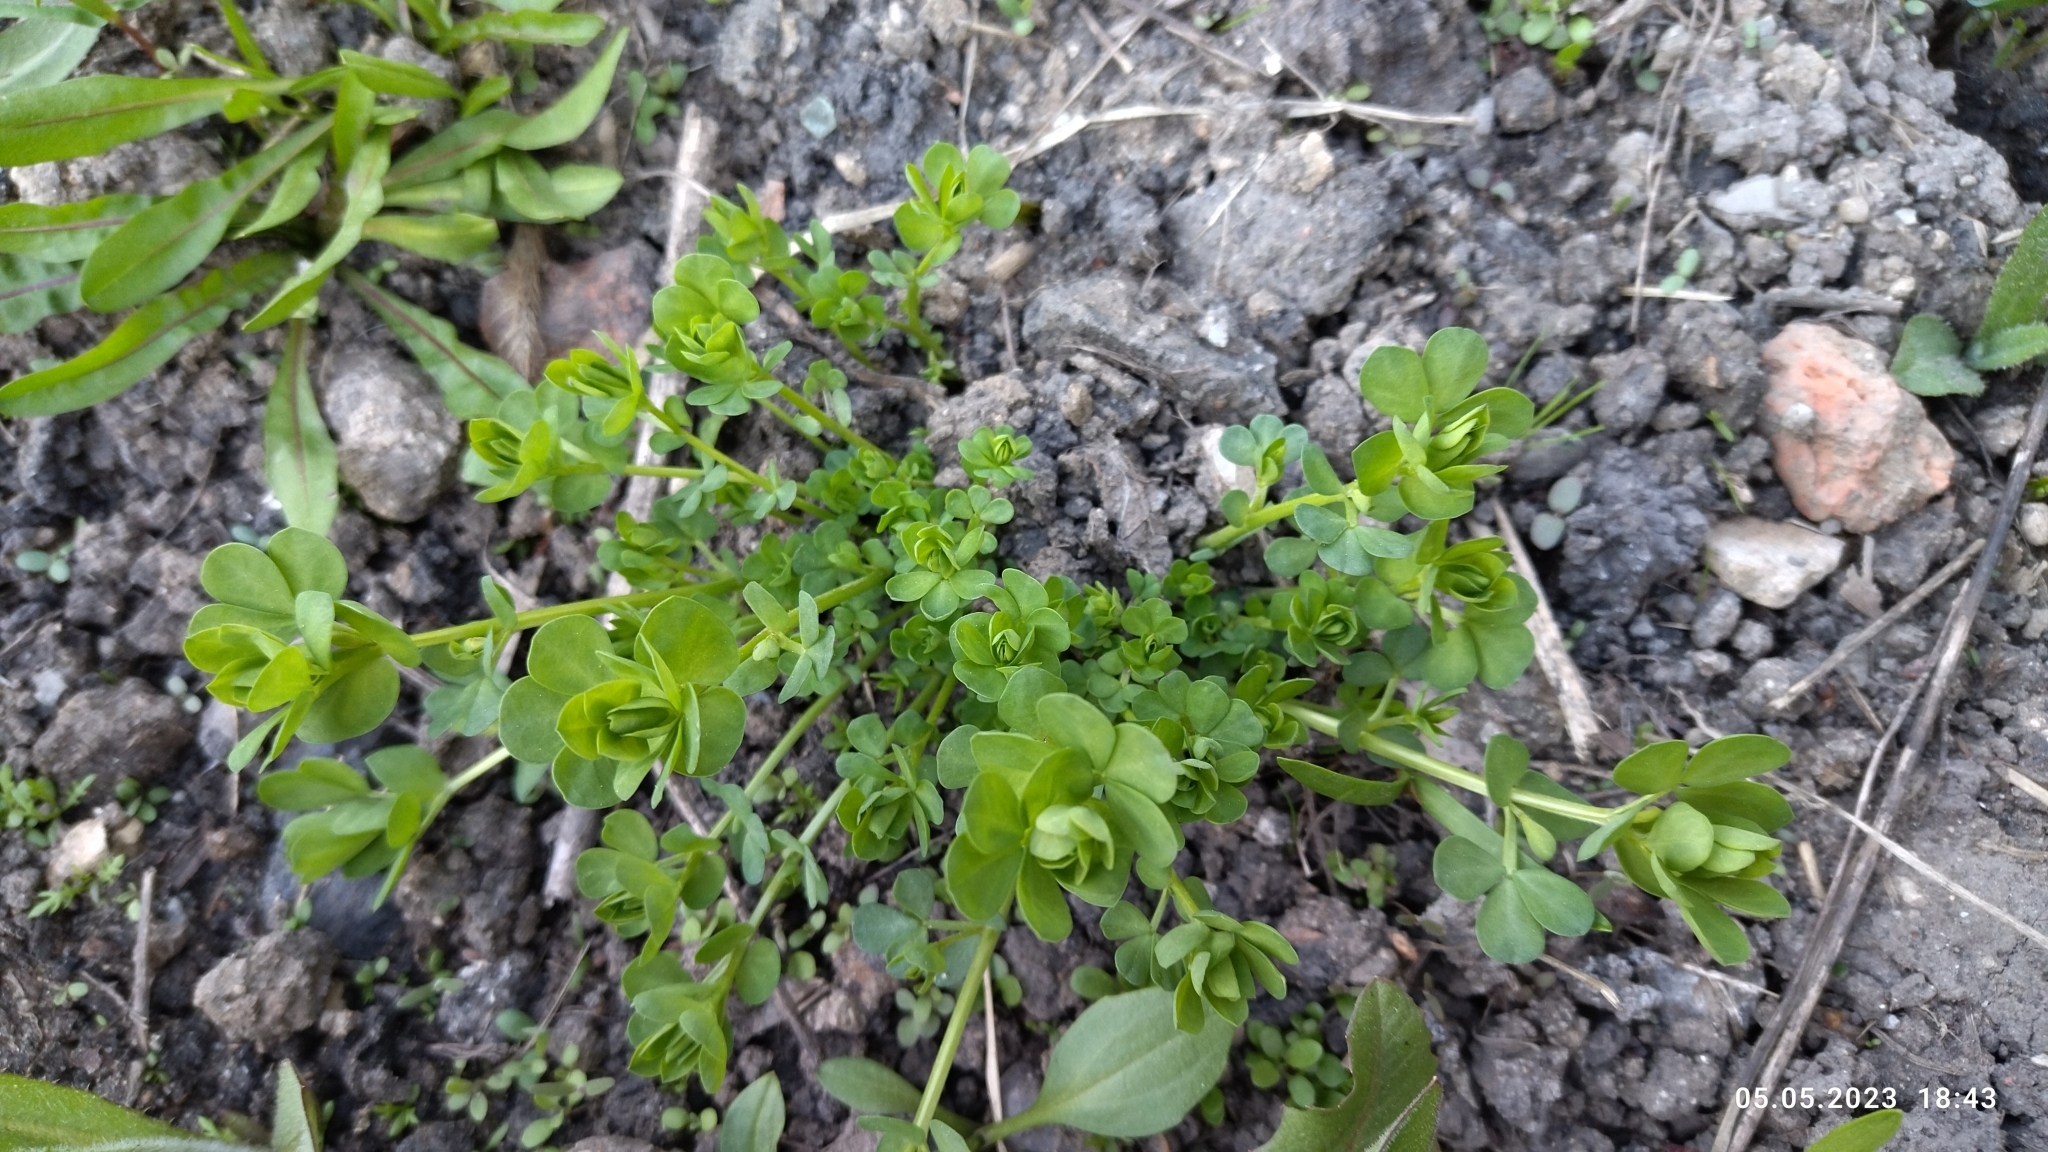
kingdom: Plantae
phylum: Tracheophyta
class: Magnoliopsida
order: Fabales
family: Fabaceae
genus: Lotus
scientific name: Lotus corniculatus
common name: Common bird's-foot-trefoil
